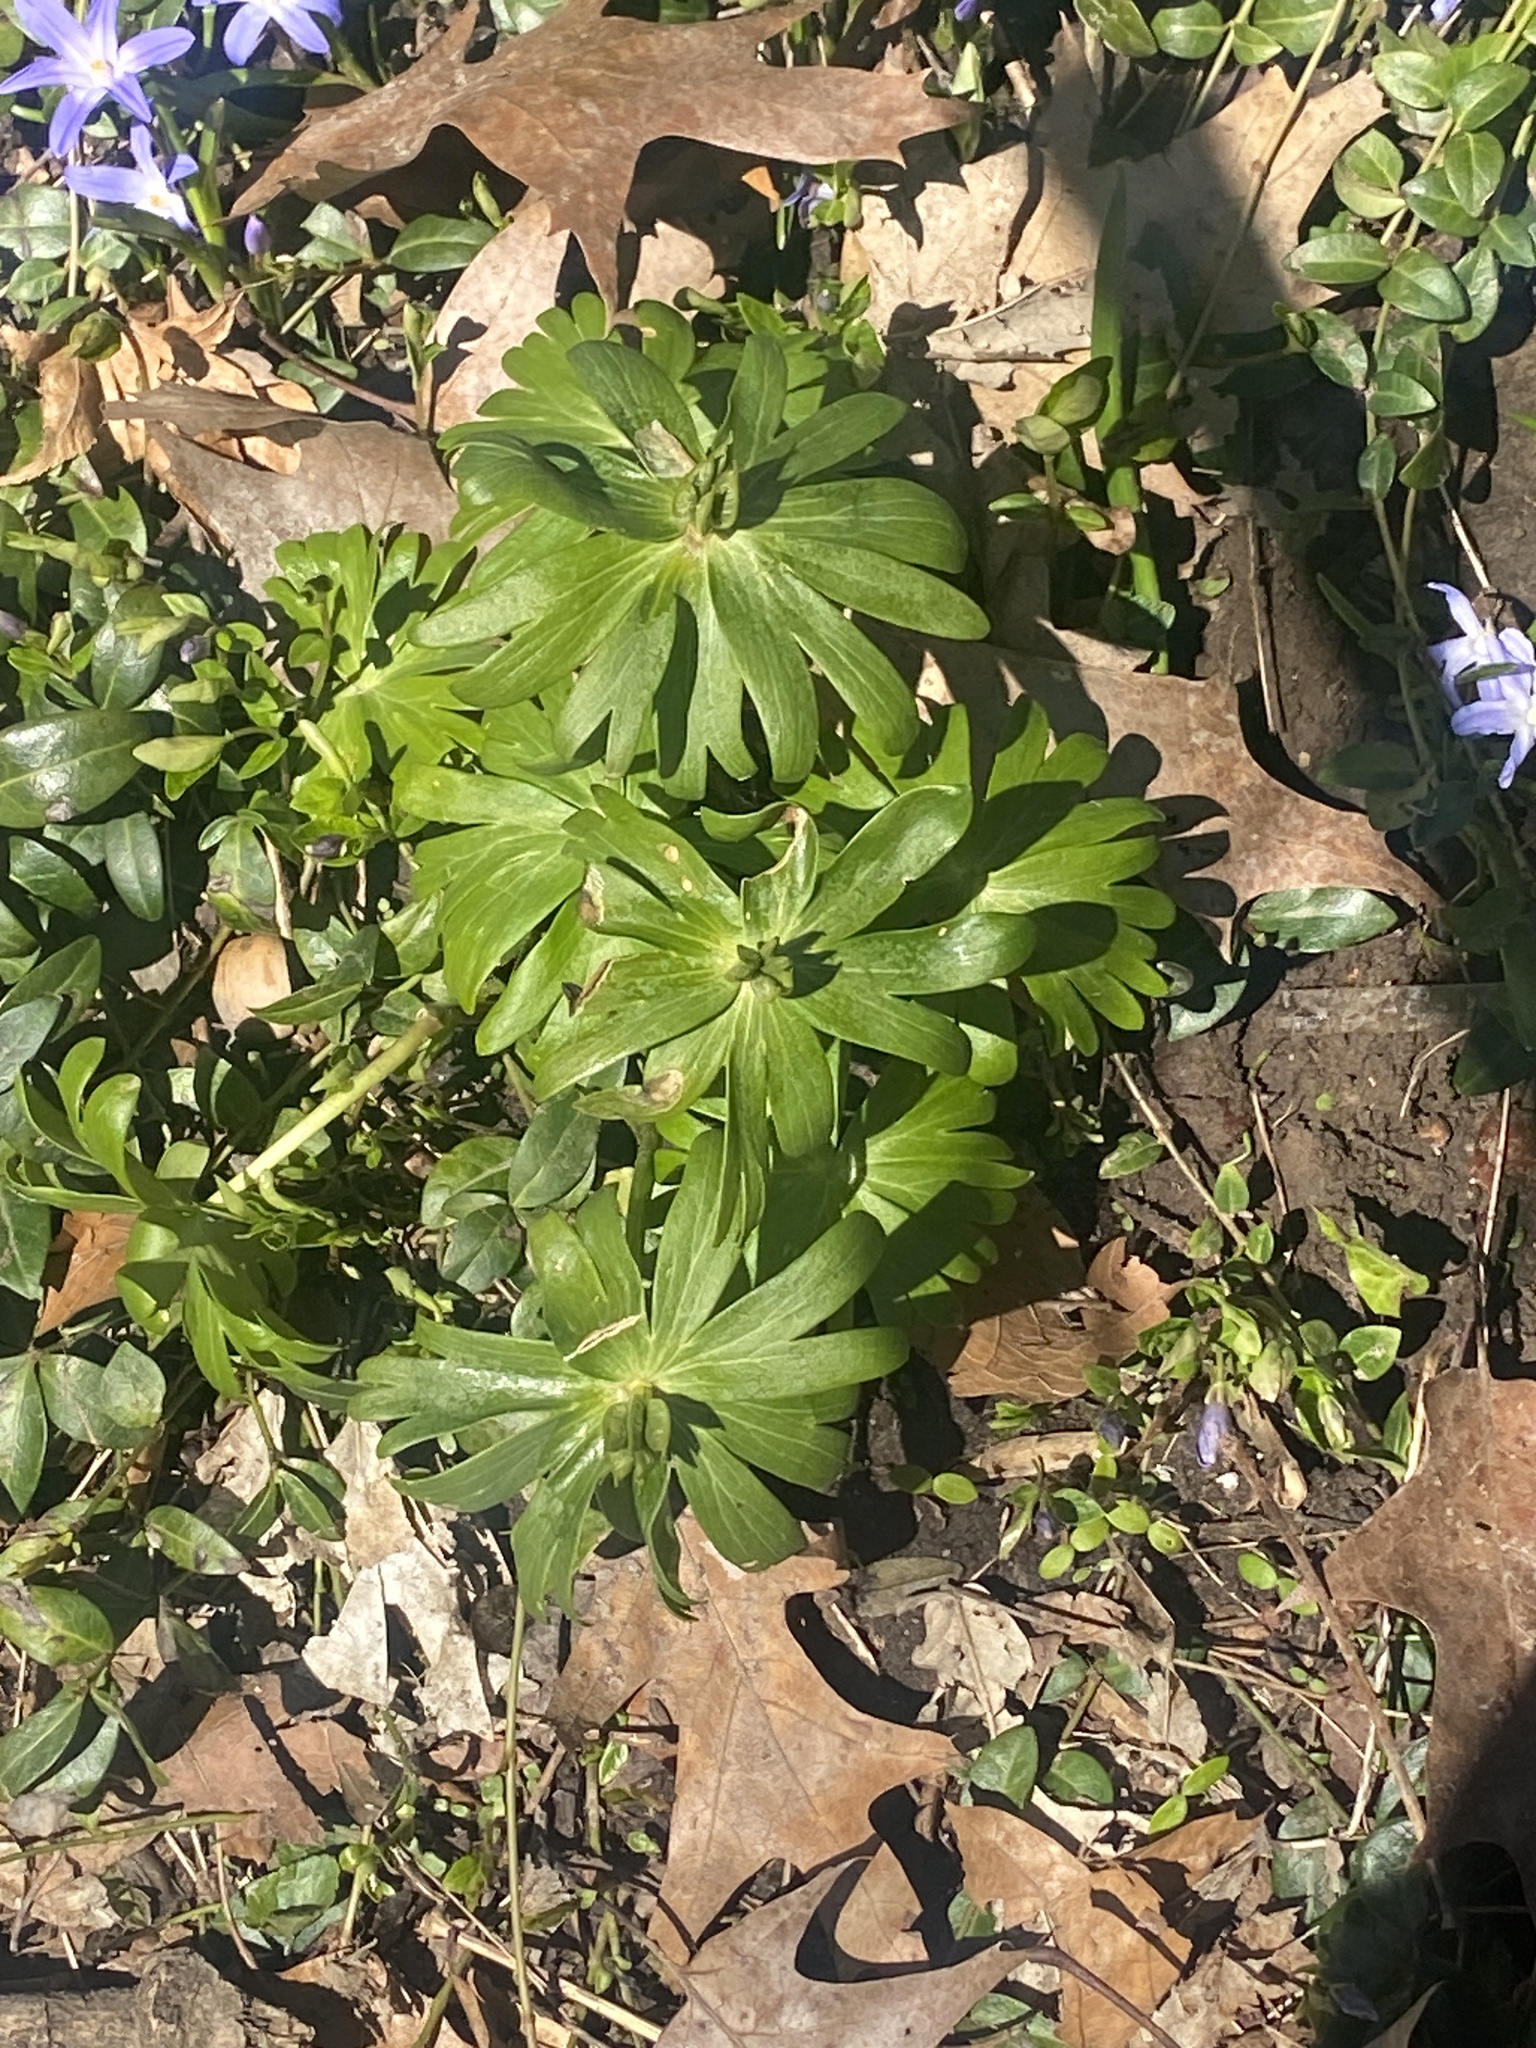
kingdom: Plantae
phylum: Tracheophyta
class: Magnoliopsida
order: Ranunculales
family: Ranunculaceae
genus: Eranthis
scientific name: Eranthis hyemalis
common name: Winter aconite
